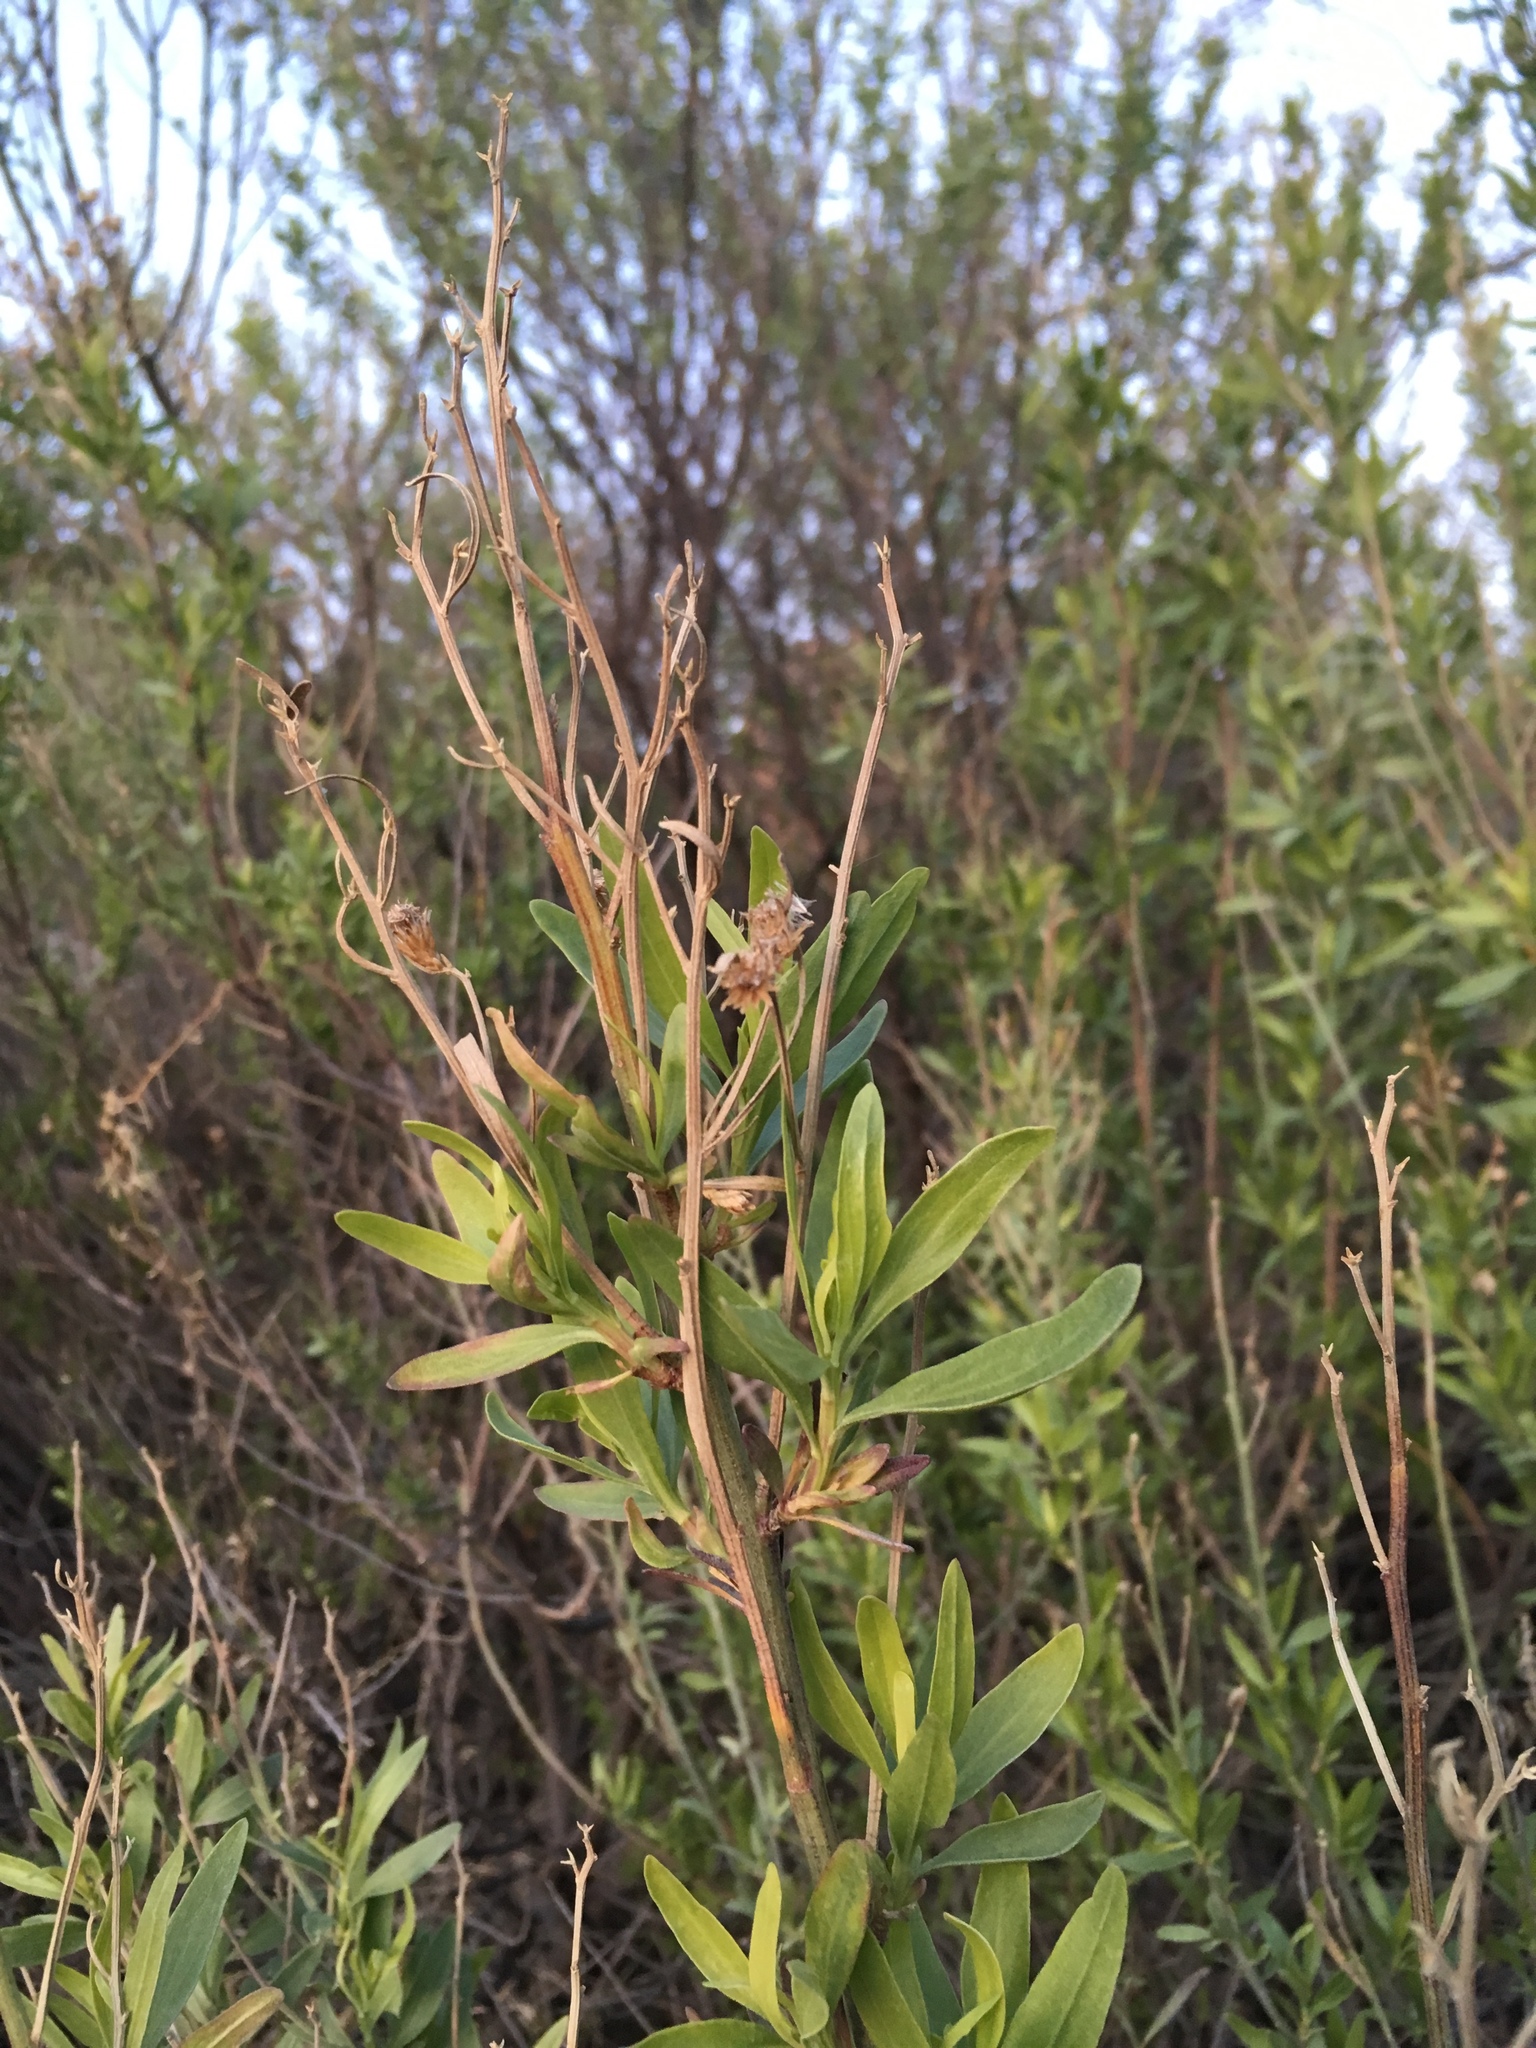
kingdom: Plantae
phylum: Tracheophyta
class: Magnoliopsida
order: Asterales
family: Asteraceae
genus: Baccharis
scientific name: Baccharis salicina
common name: Willow baccharis
